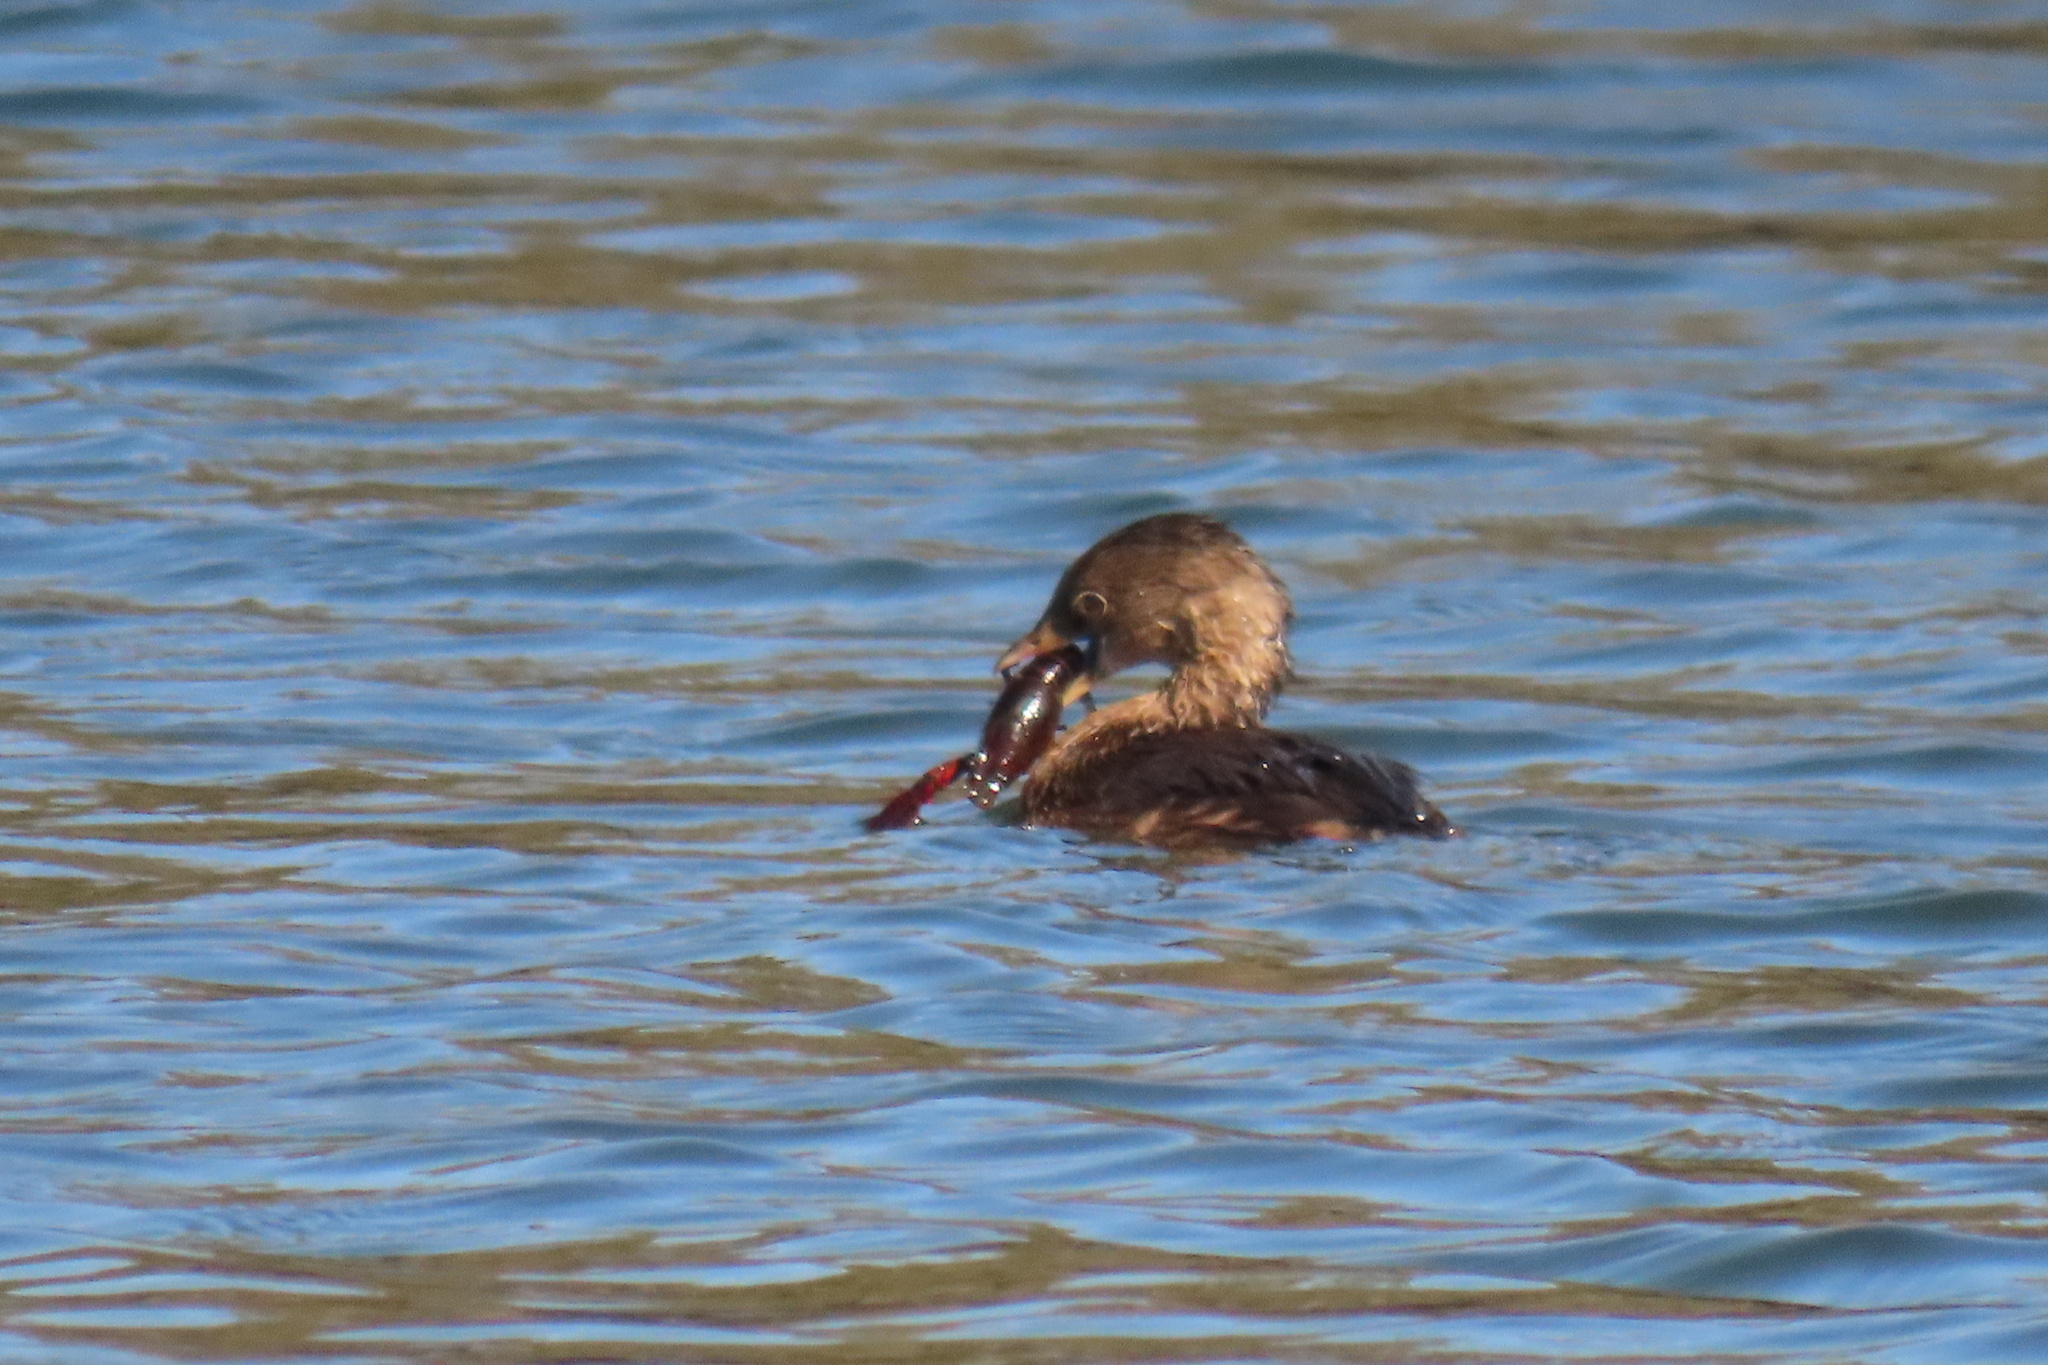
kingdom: Animalia
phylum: Chordata
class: Aves
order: Podicipediformes
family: Podicipedidae
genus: Podilymbus
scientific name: Podilymbus podiceps
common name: Pied-billed grebe
